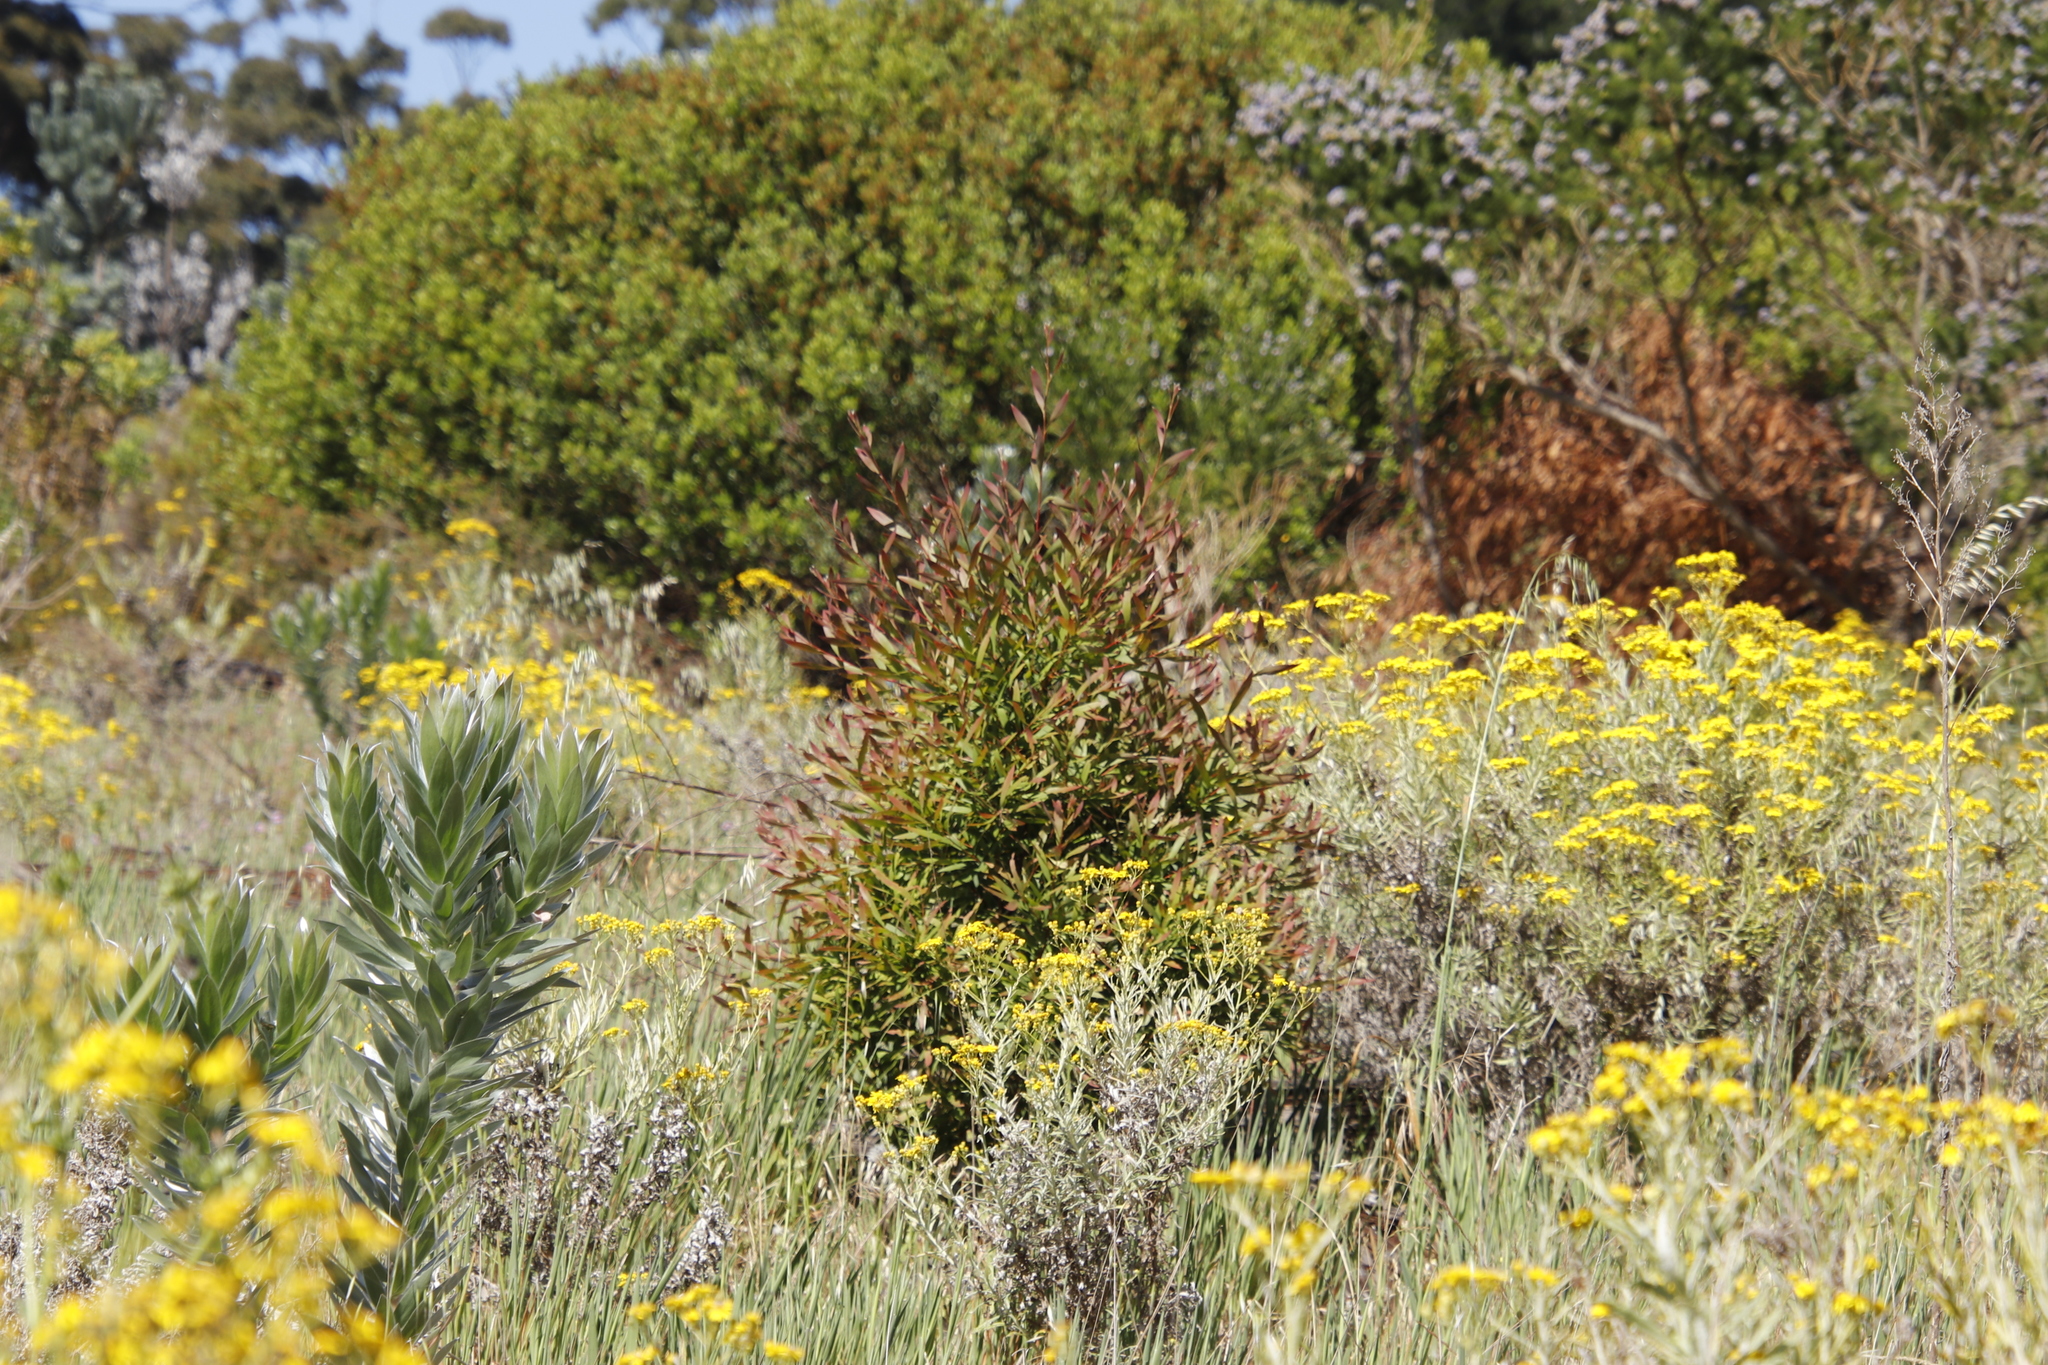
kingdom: Plantae
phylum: Tracheophyta
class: Magnoliopsida
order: Proteales
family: Proteaceae
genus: Hakea
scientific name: Hakea salicifolia
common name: Willow hakea
